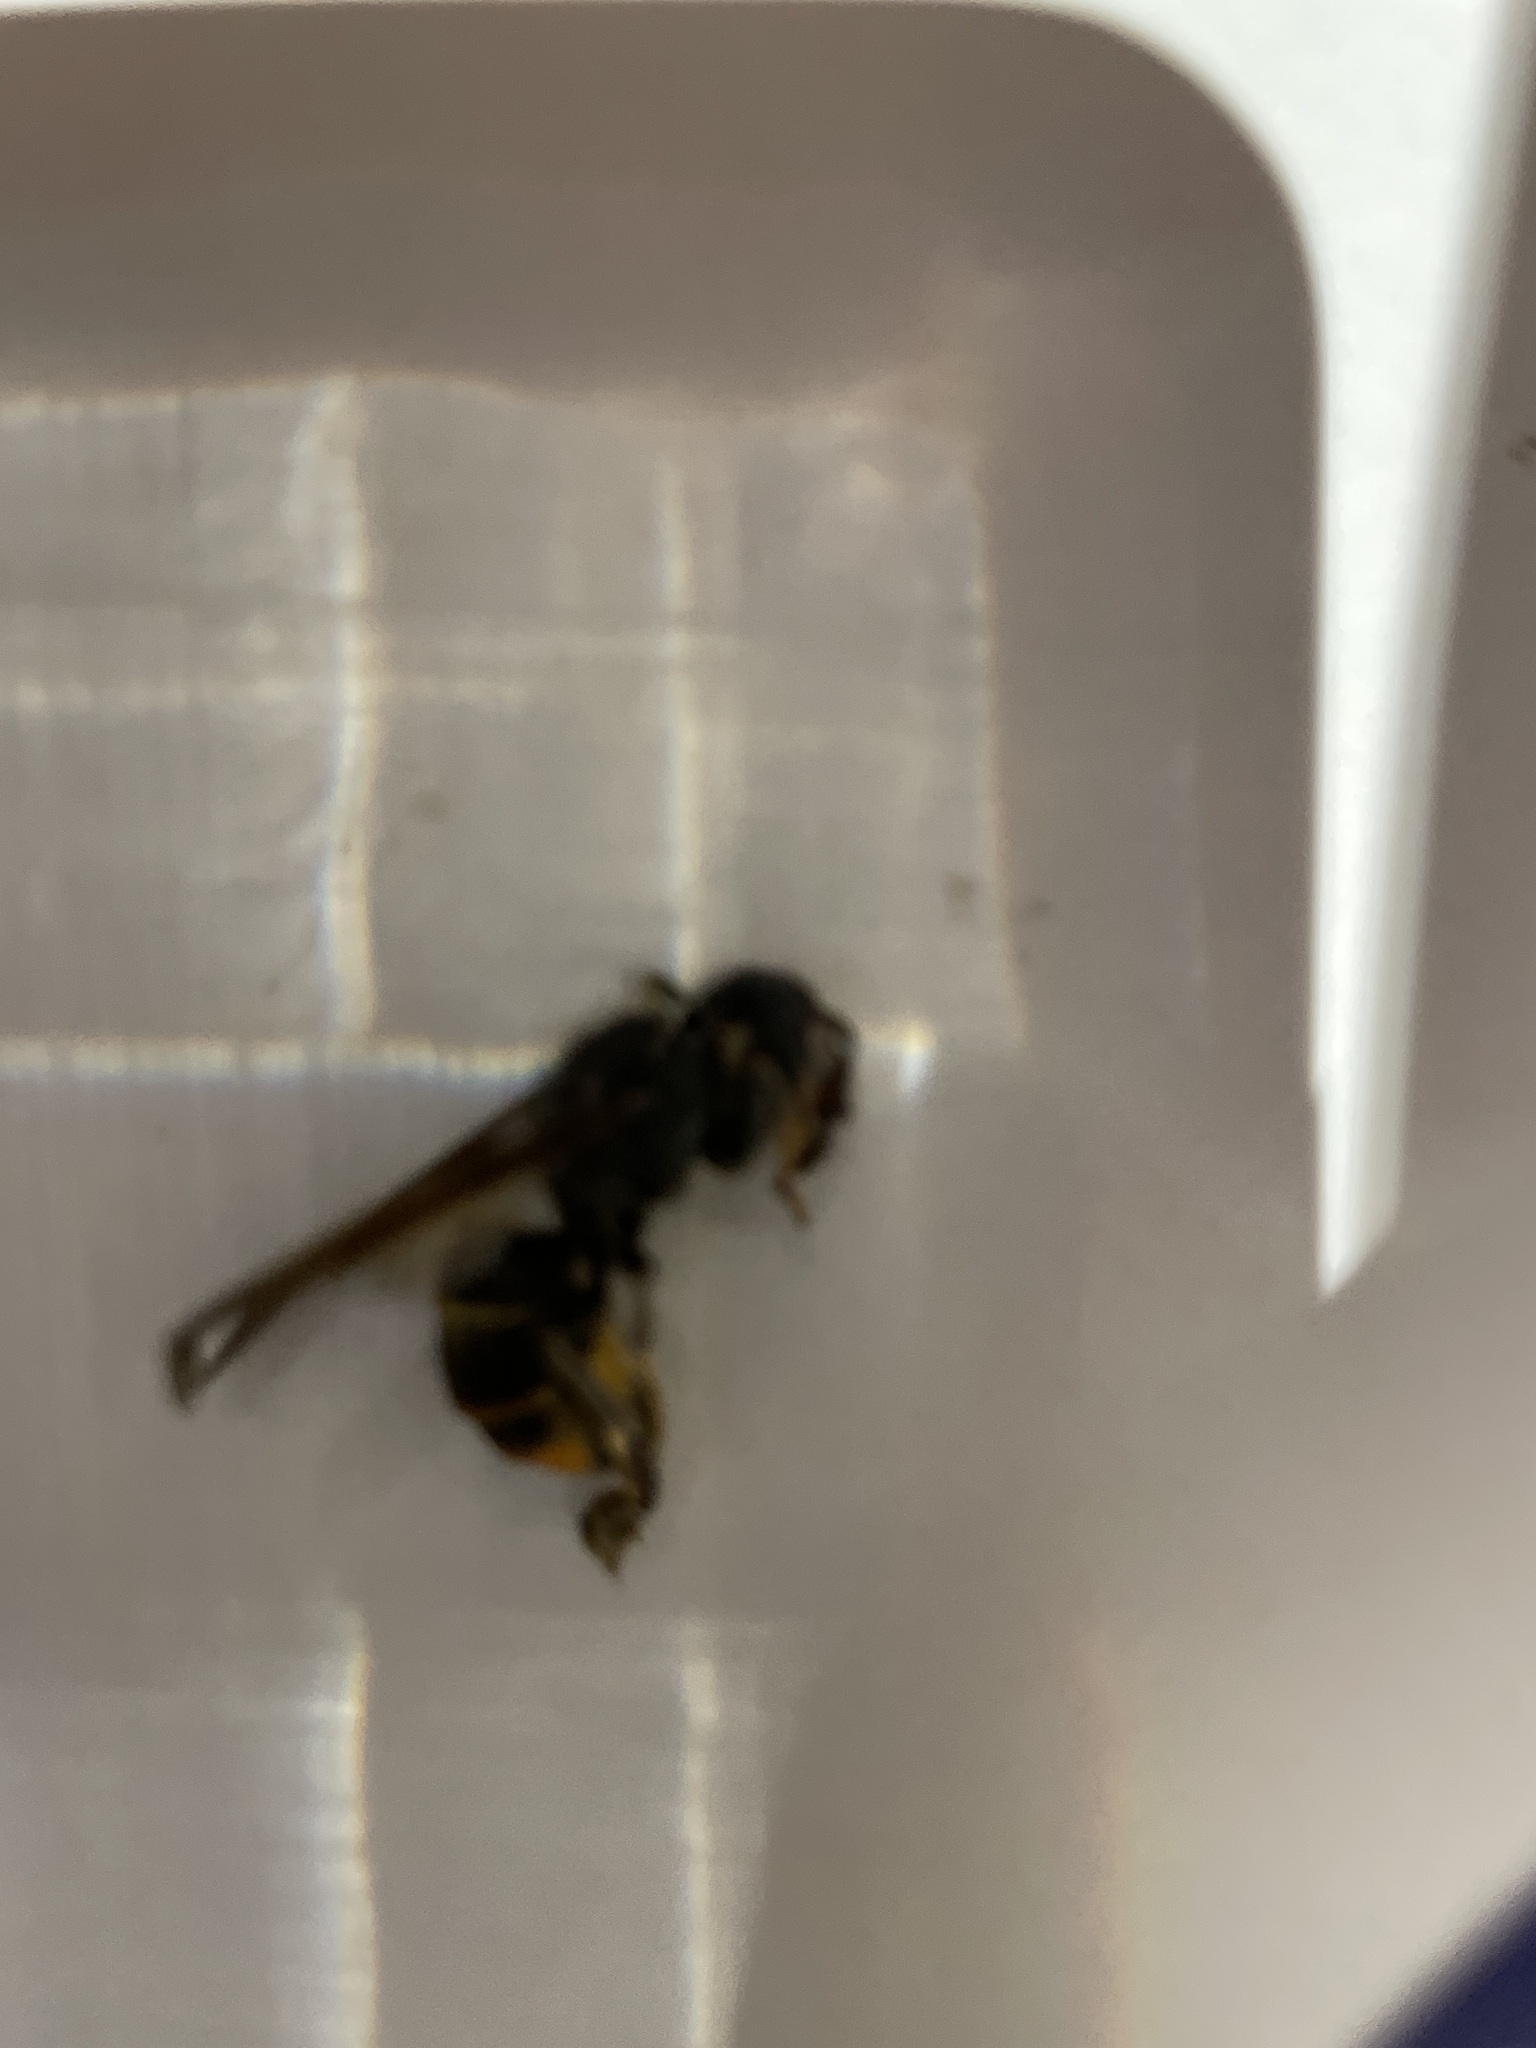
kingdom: Animalia
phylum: Arthropoda
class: Insecta
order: Hymenoptera
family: Vespidae
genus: Vespa
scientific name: Vespa velutina
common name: Asian hornet
